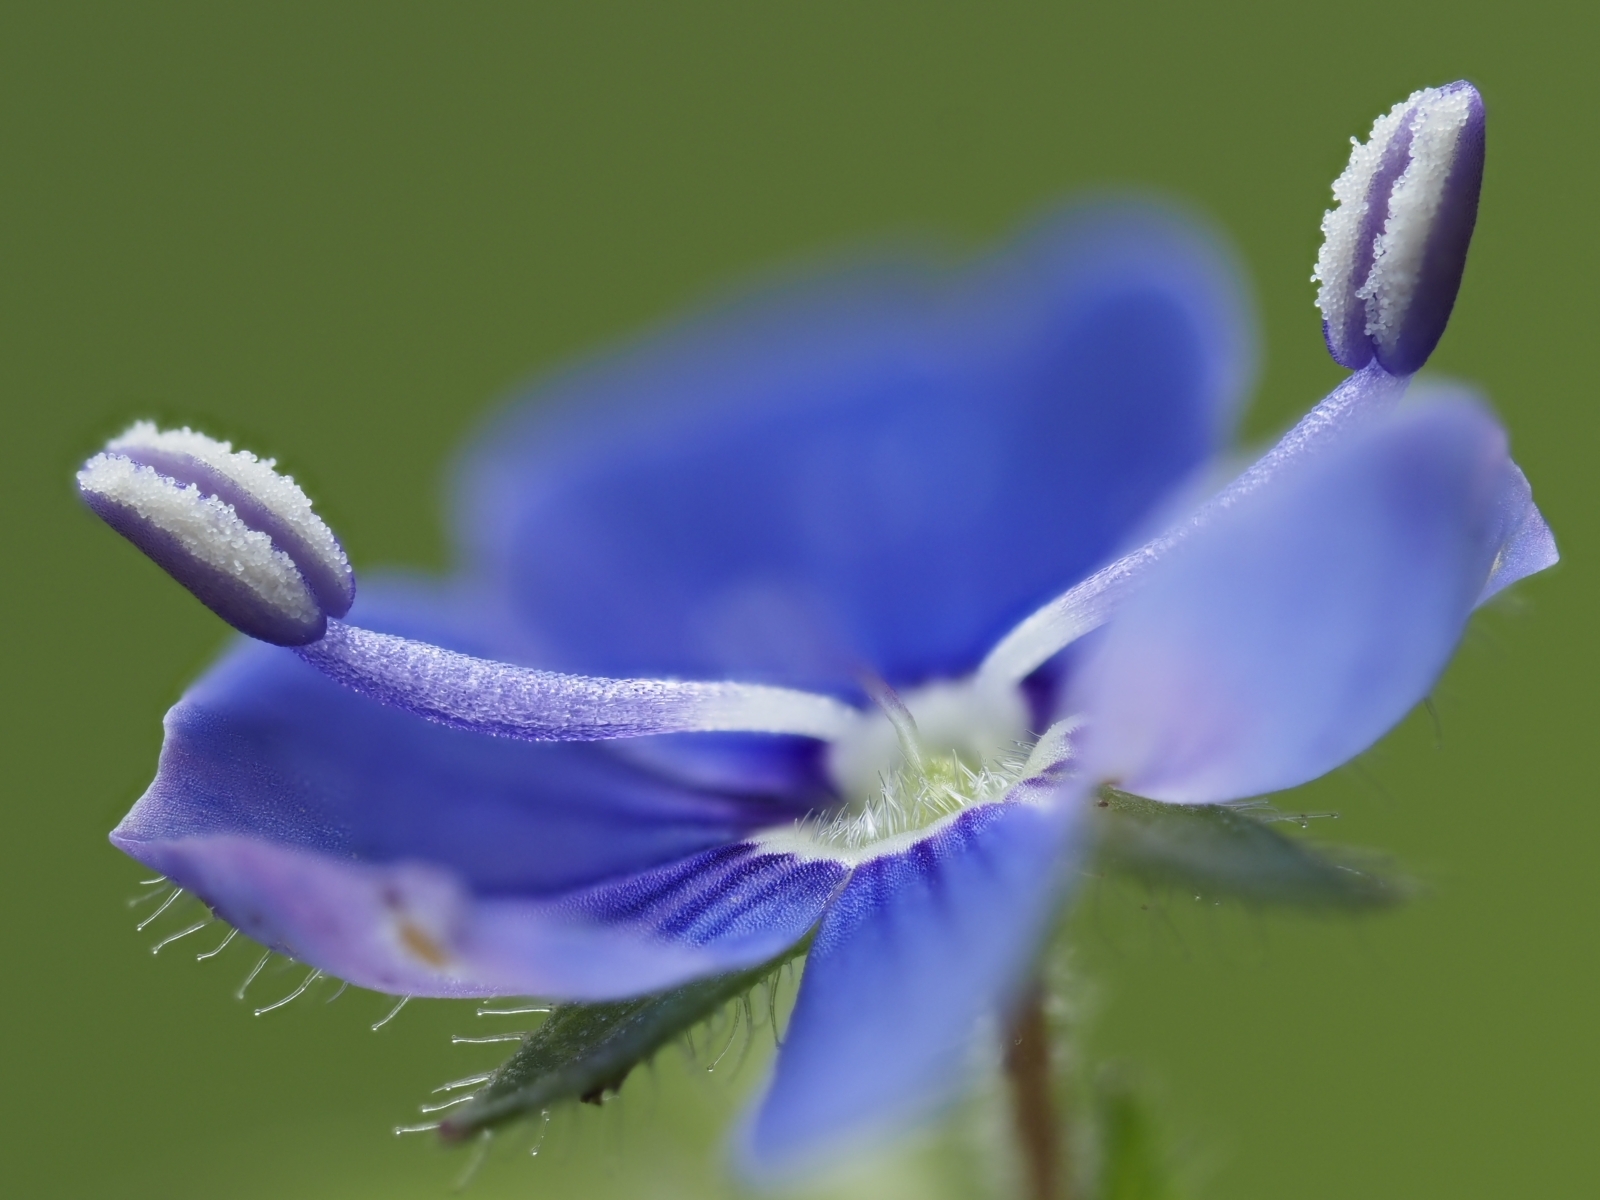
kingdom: Plantae
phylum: Tracheophyta
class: Magnoliopsida
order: Lamiales
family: Plantaginaceae
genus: Veronica
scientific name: Veronica chamaedrys
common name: Germander speedwell
